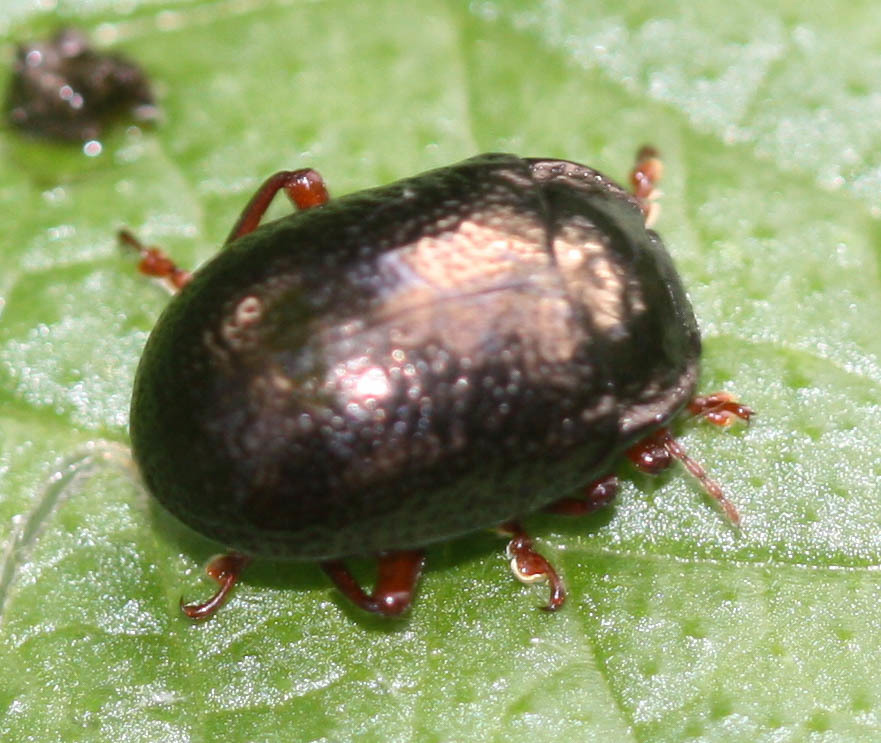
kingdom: Animalia
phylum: Arthropoda
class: Insecta
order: Coleoptera
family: Chrysomelidae
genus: Chrysolina
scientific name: Chrysolina bankii
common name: Leaf beetle
